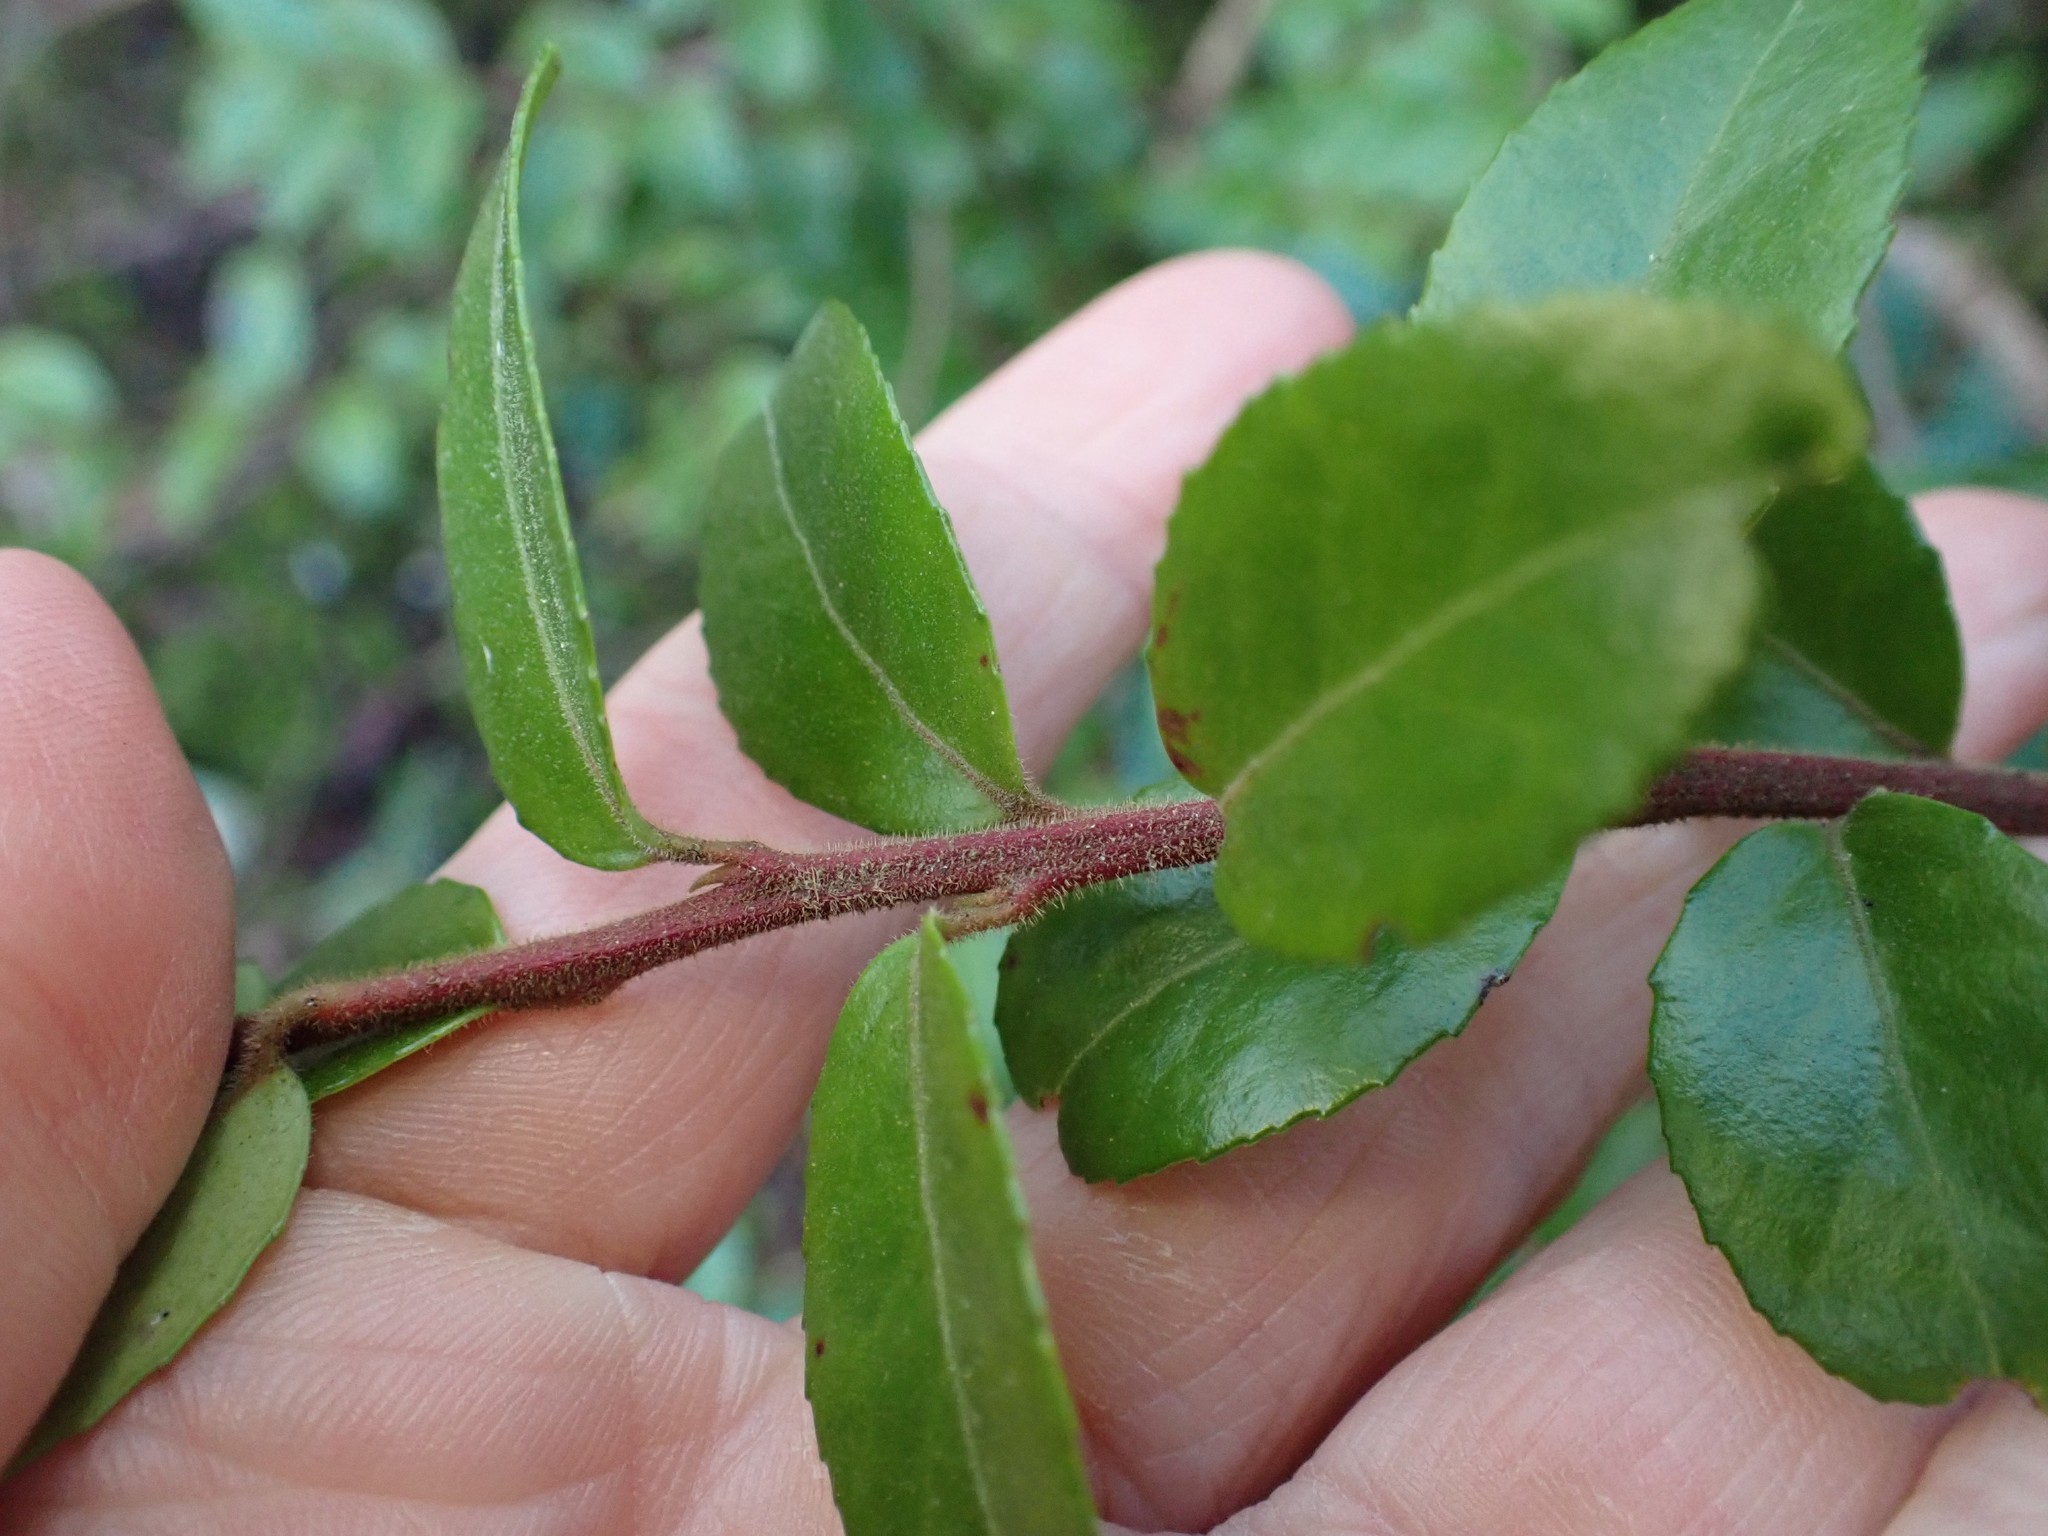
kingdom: Plantae
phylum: Tracheophyta
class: Magnoliopsida
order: Ericales
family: Ericaceae
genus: Vaccinium
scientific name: Vaccinium ovatum
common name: California-huckleberry
